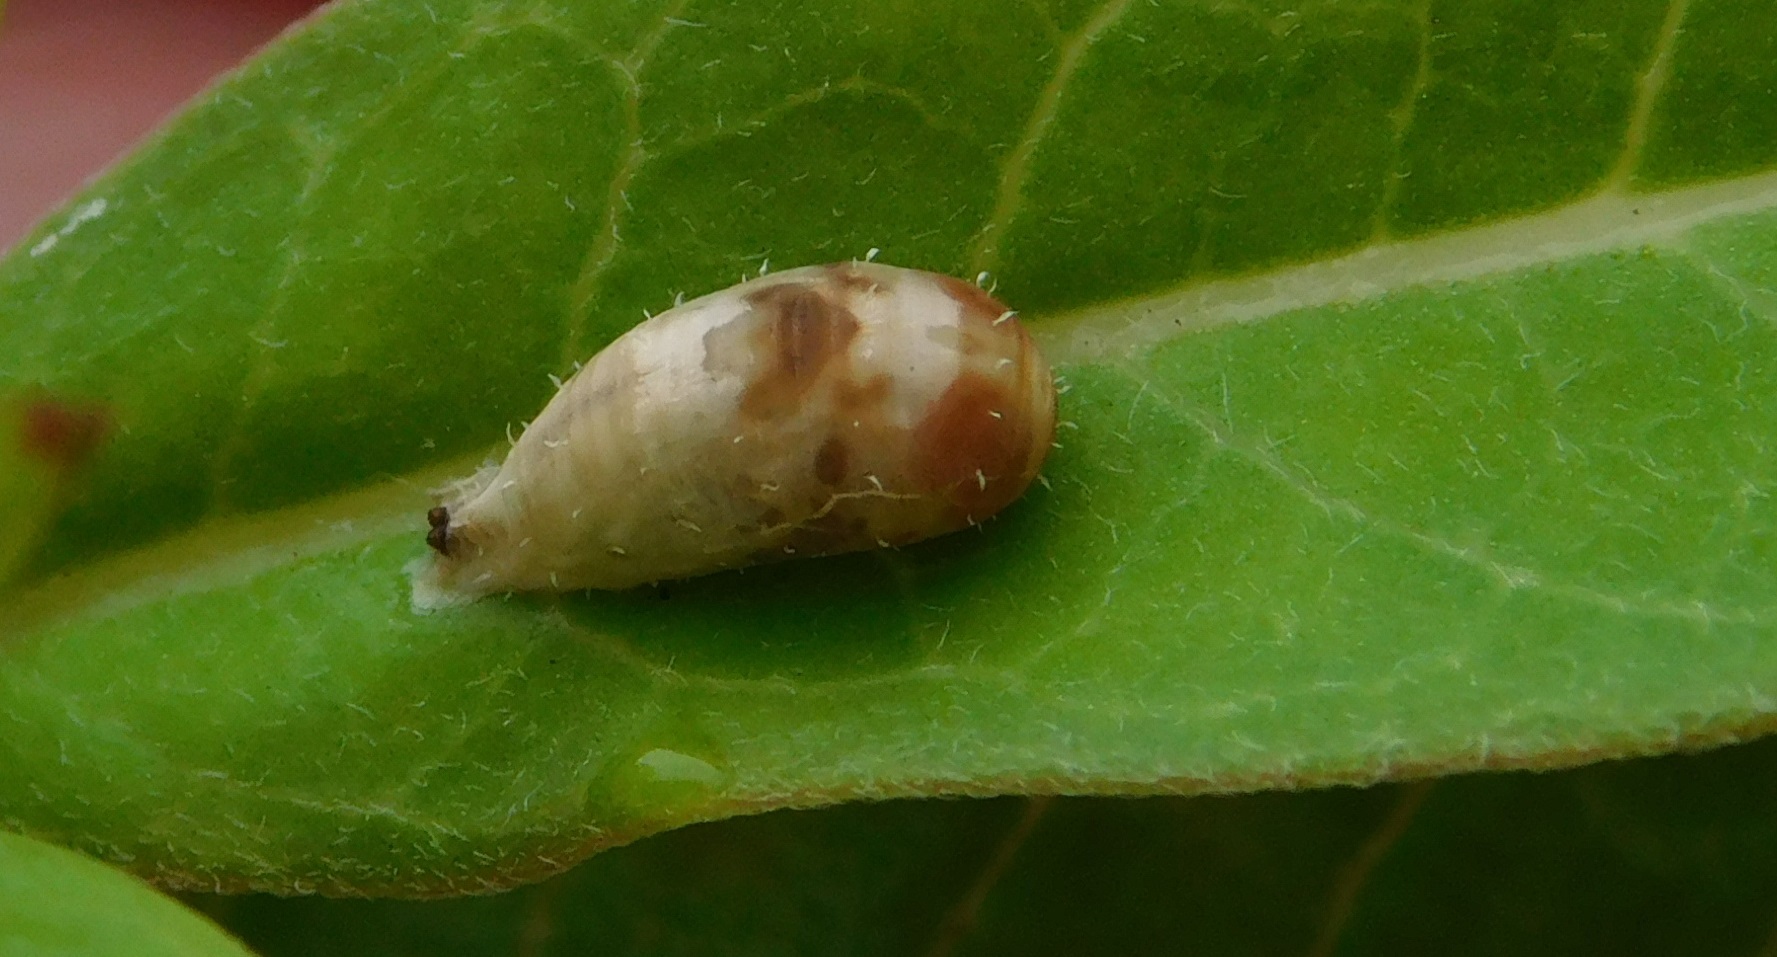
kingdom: Animalia
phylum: Arthropoda
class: Insecta
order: Diptera
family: Syrphidae
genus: Dioprosopa
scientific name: Dioprosopa clavatus
